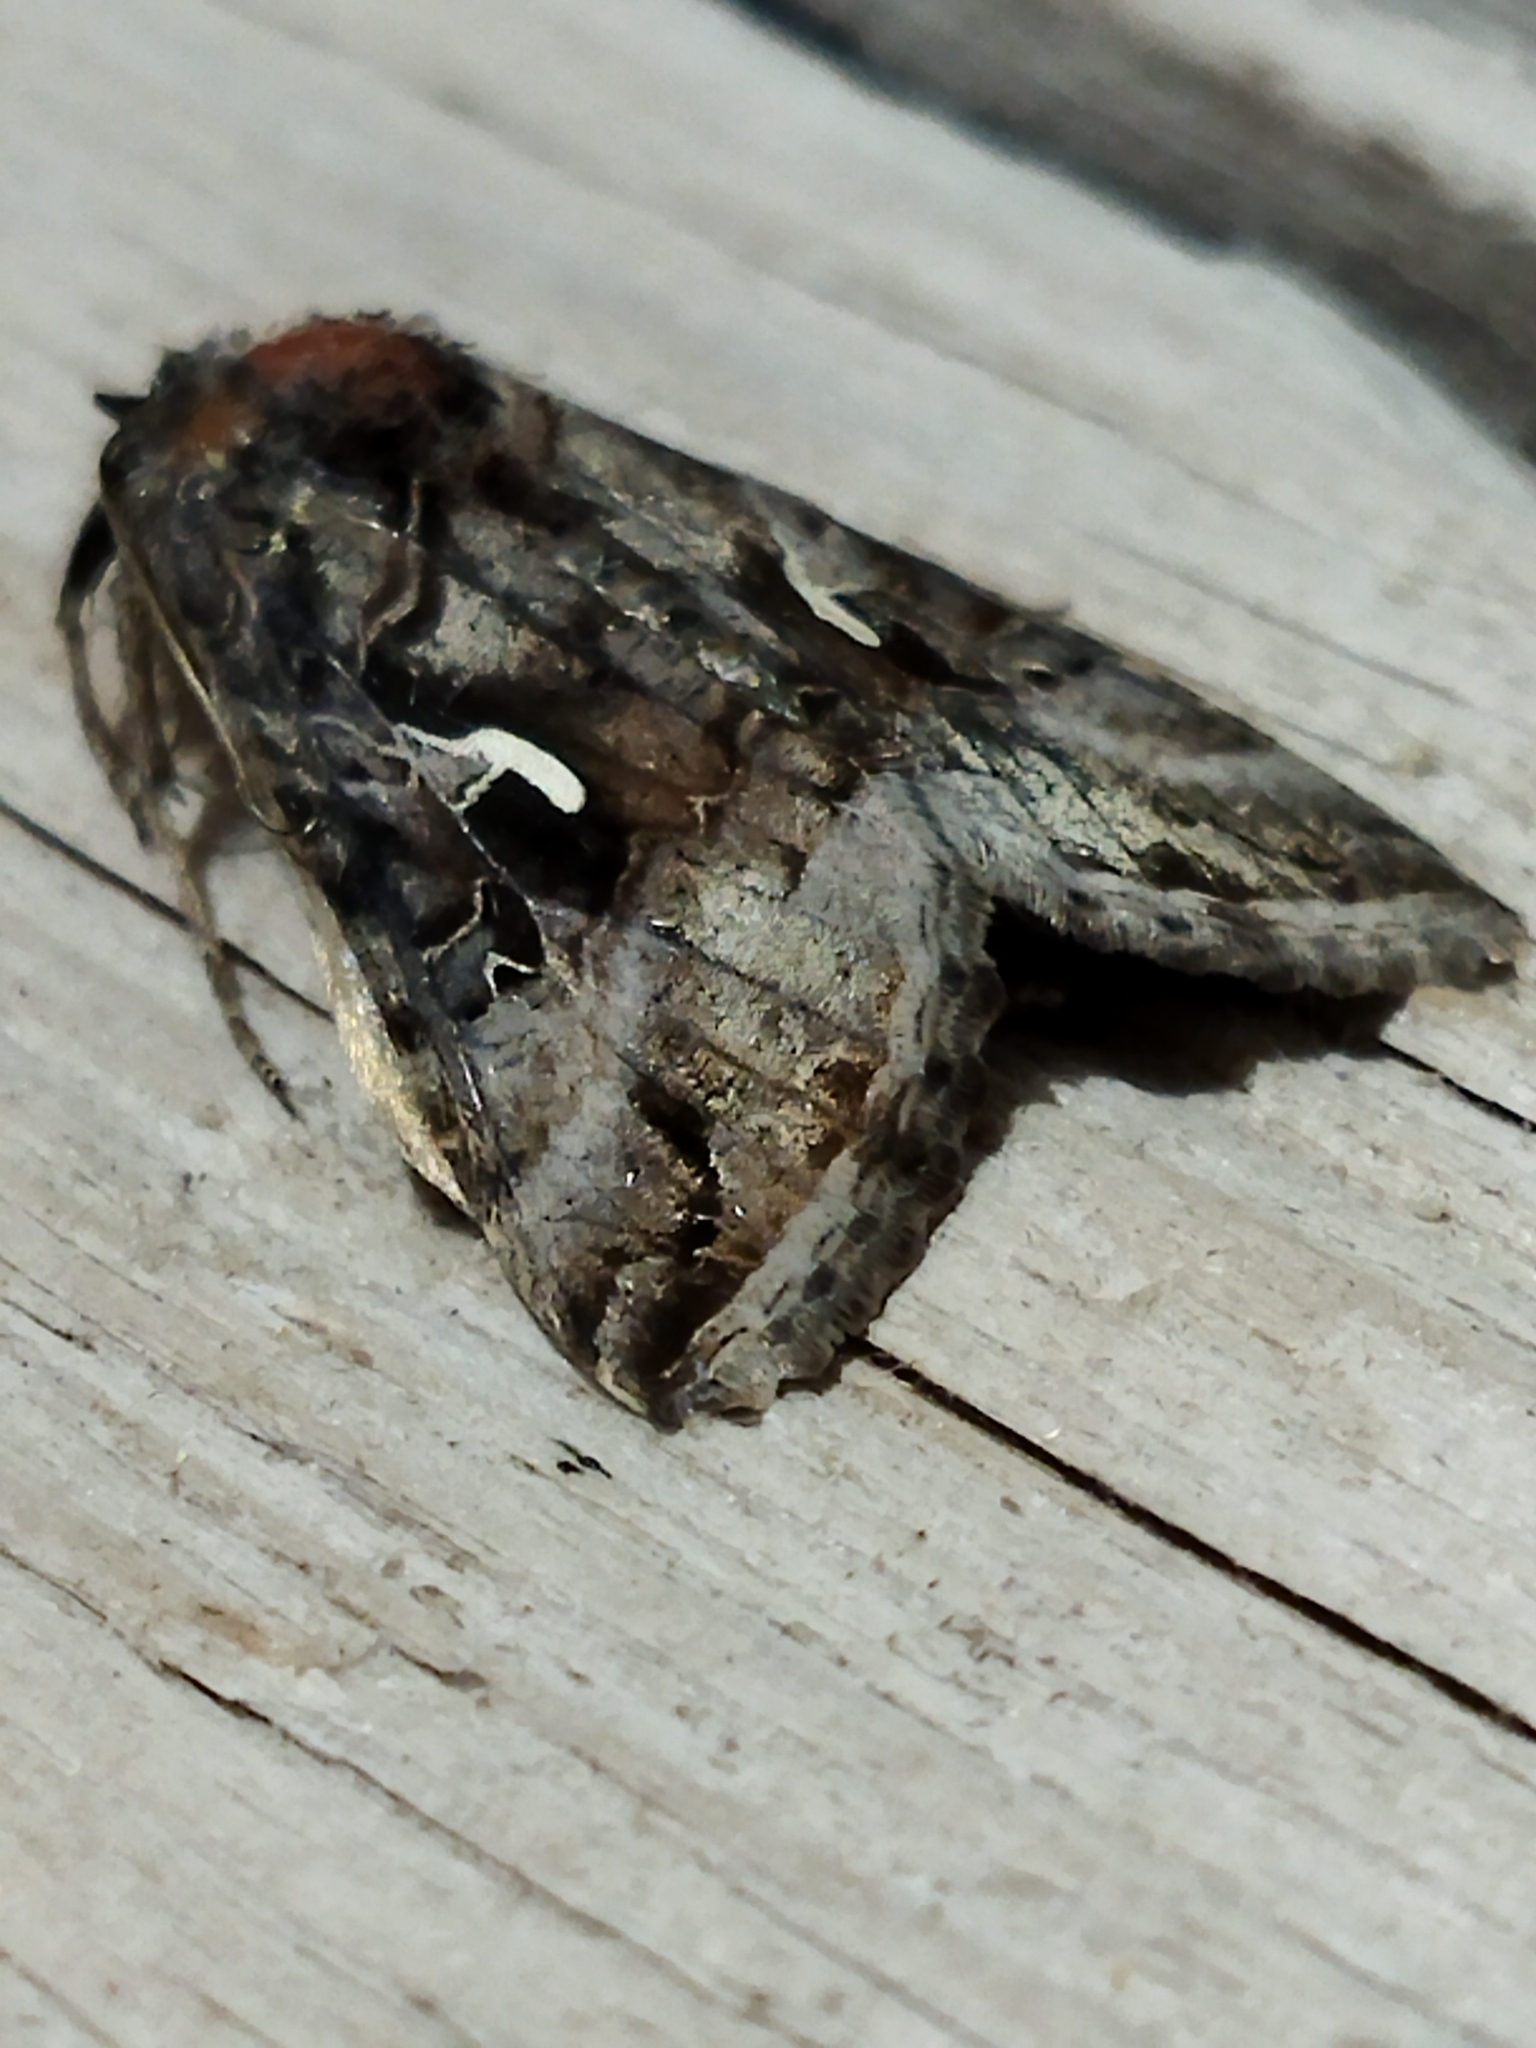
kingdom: Animalia
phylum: Arthropoda
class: Insecta
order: Lepidoptera
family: Noctuidae
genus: Autographa
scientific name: Autographa gamma
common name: Silver y
